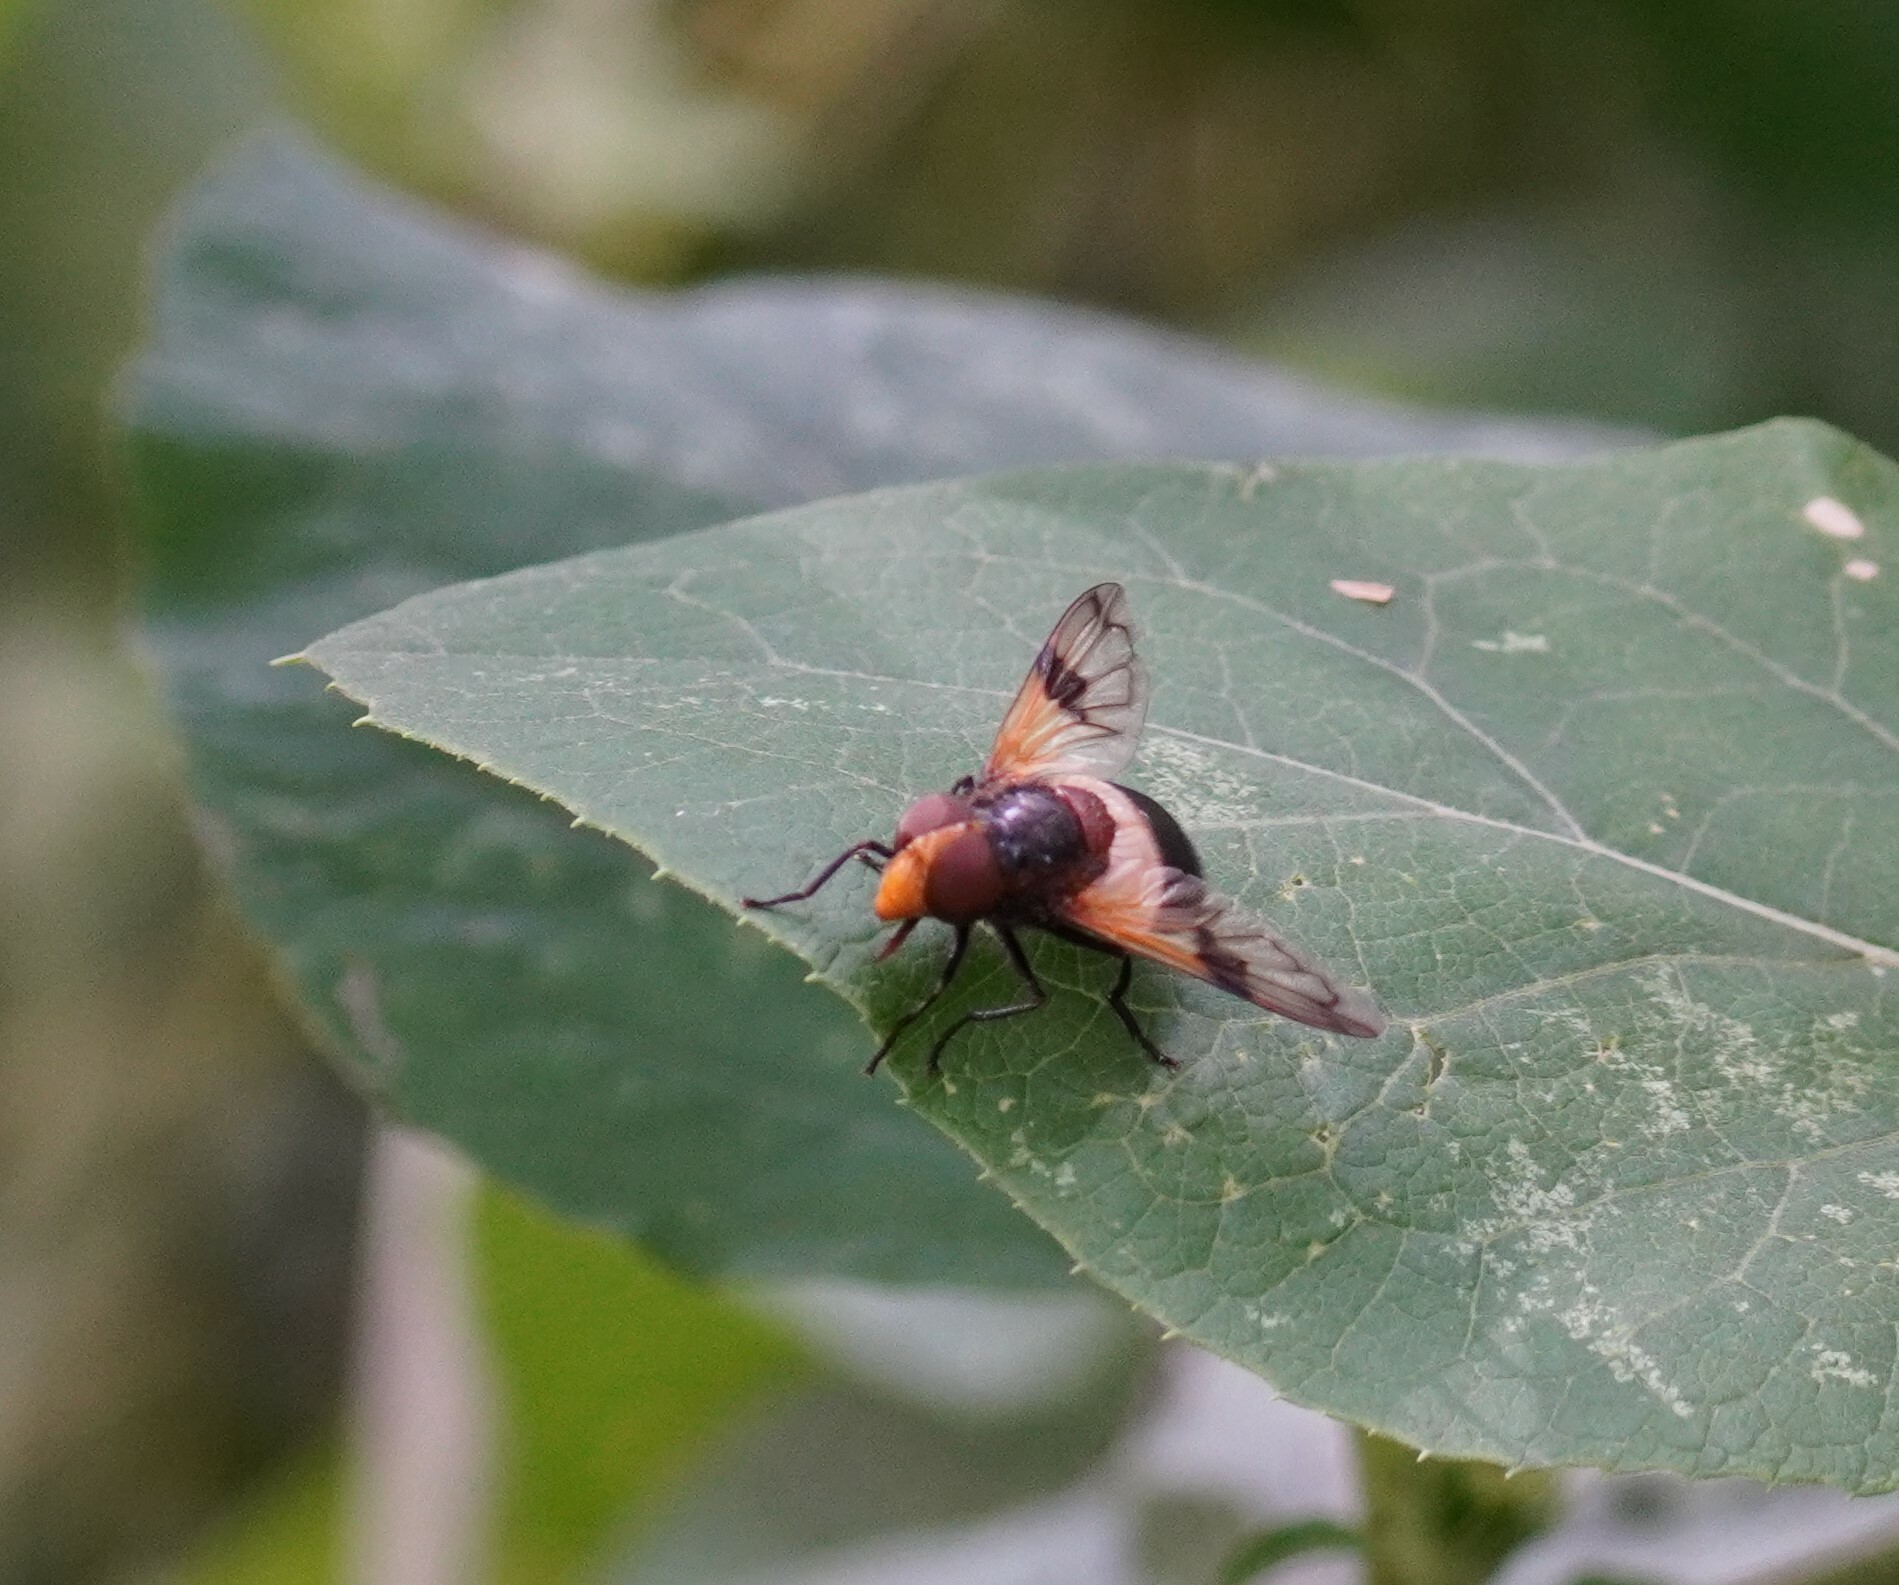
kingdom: Animalia
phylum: Arthropoda
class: Insecta
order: Diptera
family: Syrphidae
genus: Volucella
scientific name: Volucella pellucens
